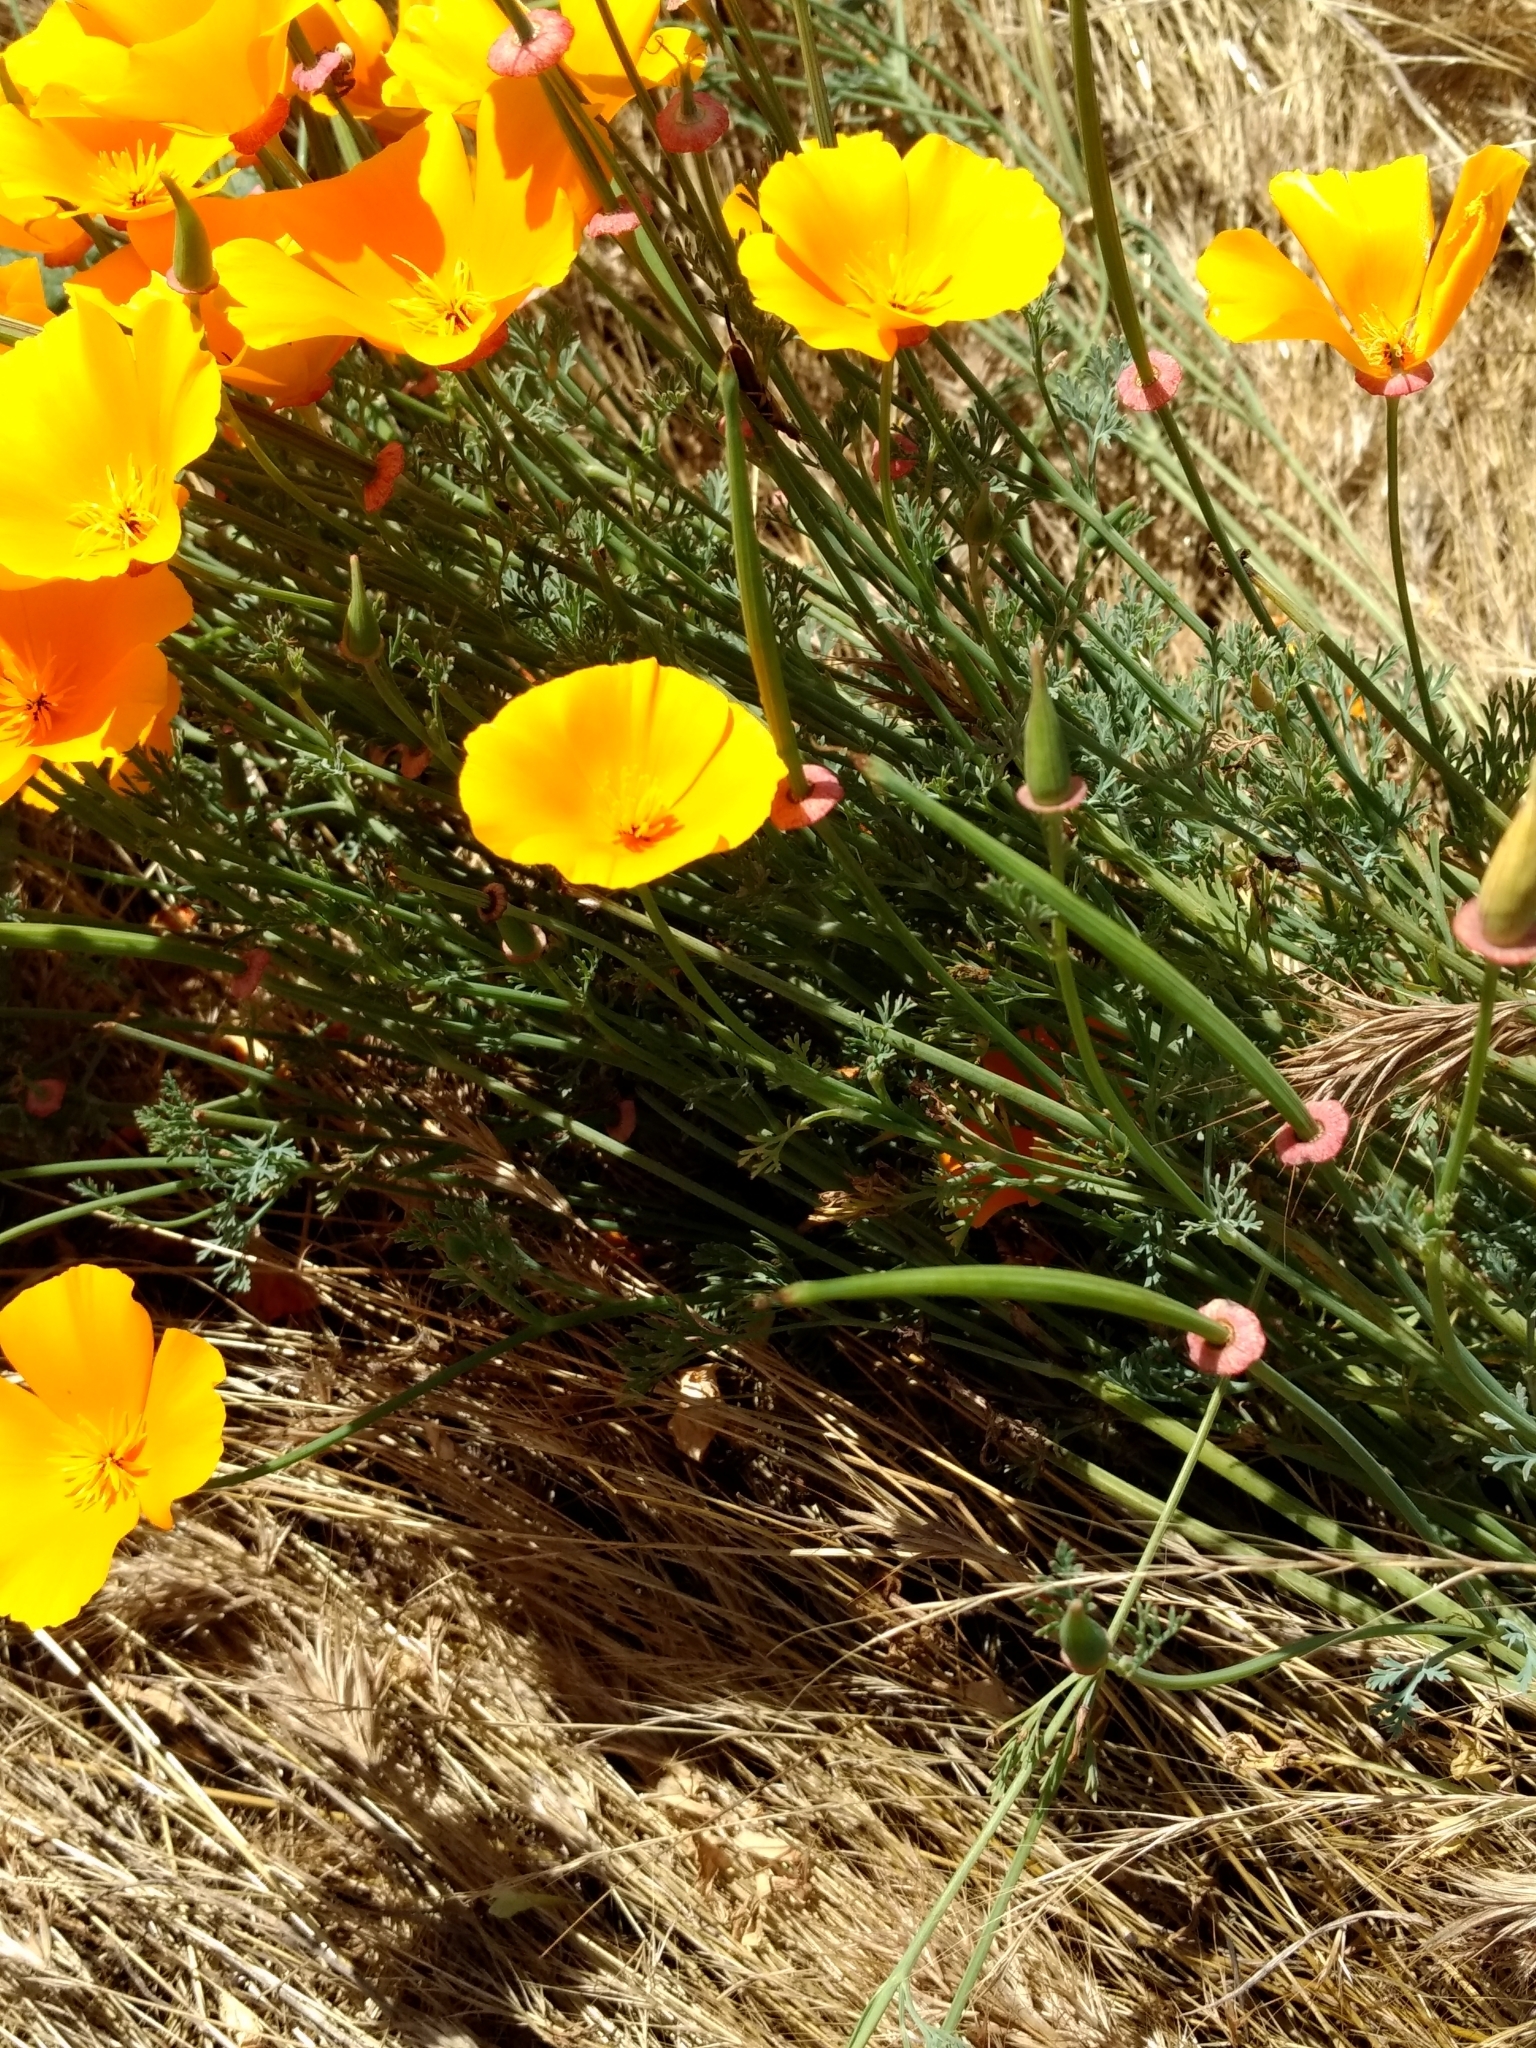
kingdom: Plantae
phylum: Tracheophyta
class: Magnoliopsida
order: Ranunculales
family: Papaveraceae
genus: Eschscholzia
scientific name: Eschscholzia californica
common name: California poppy
